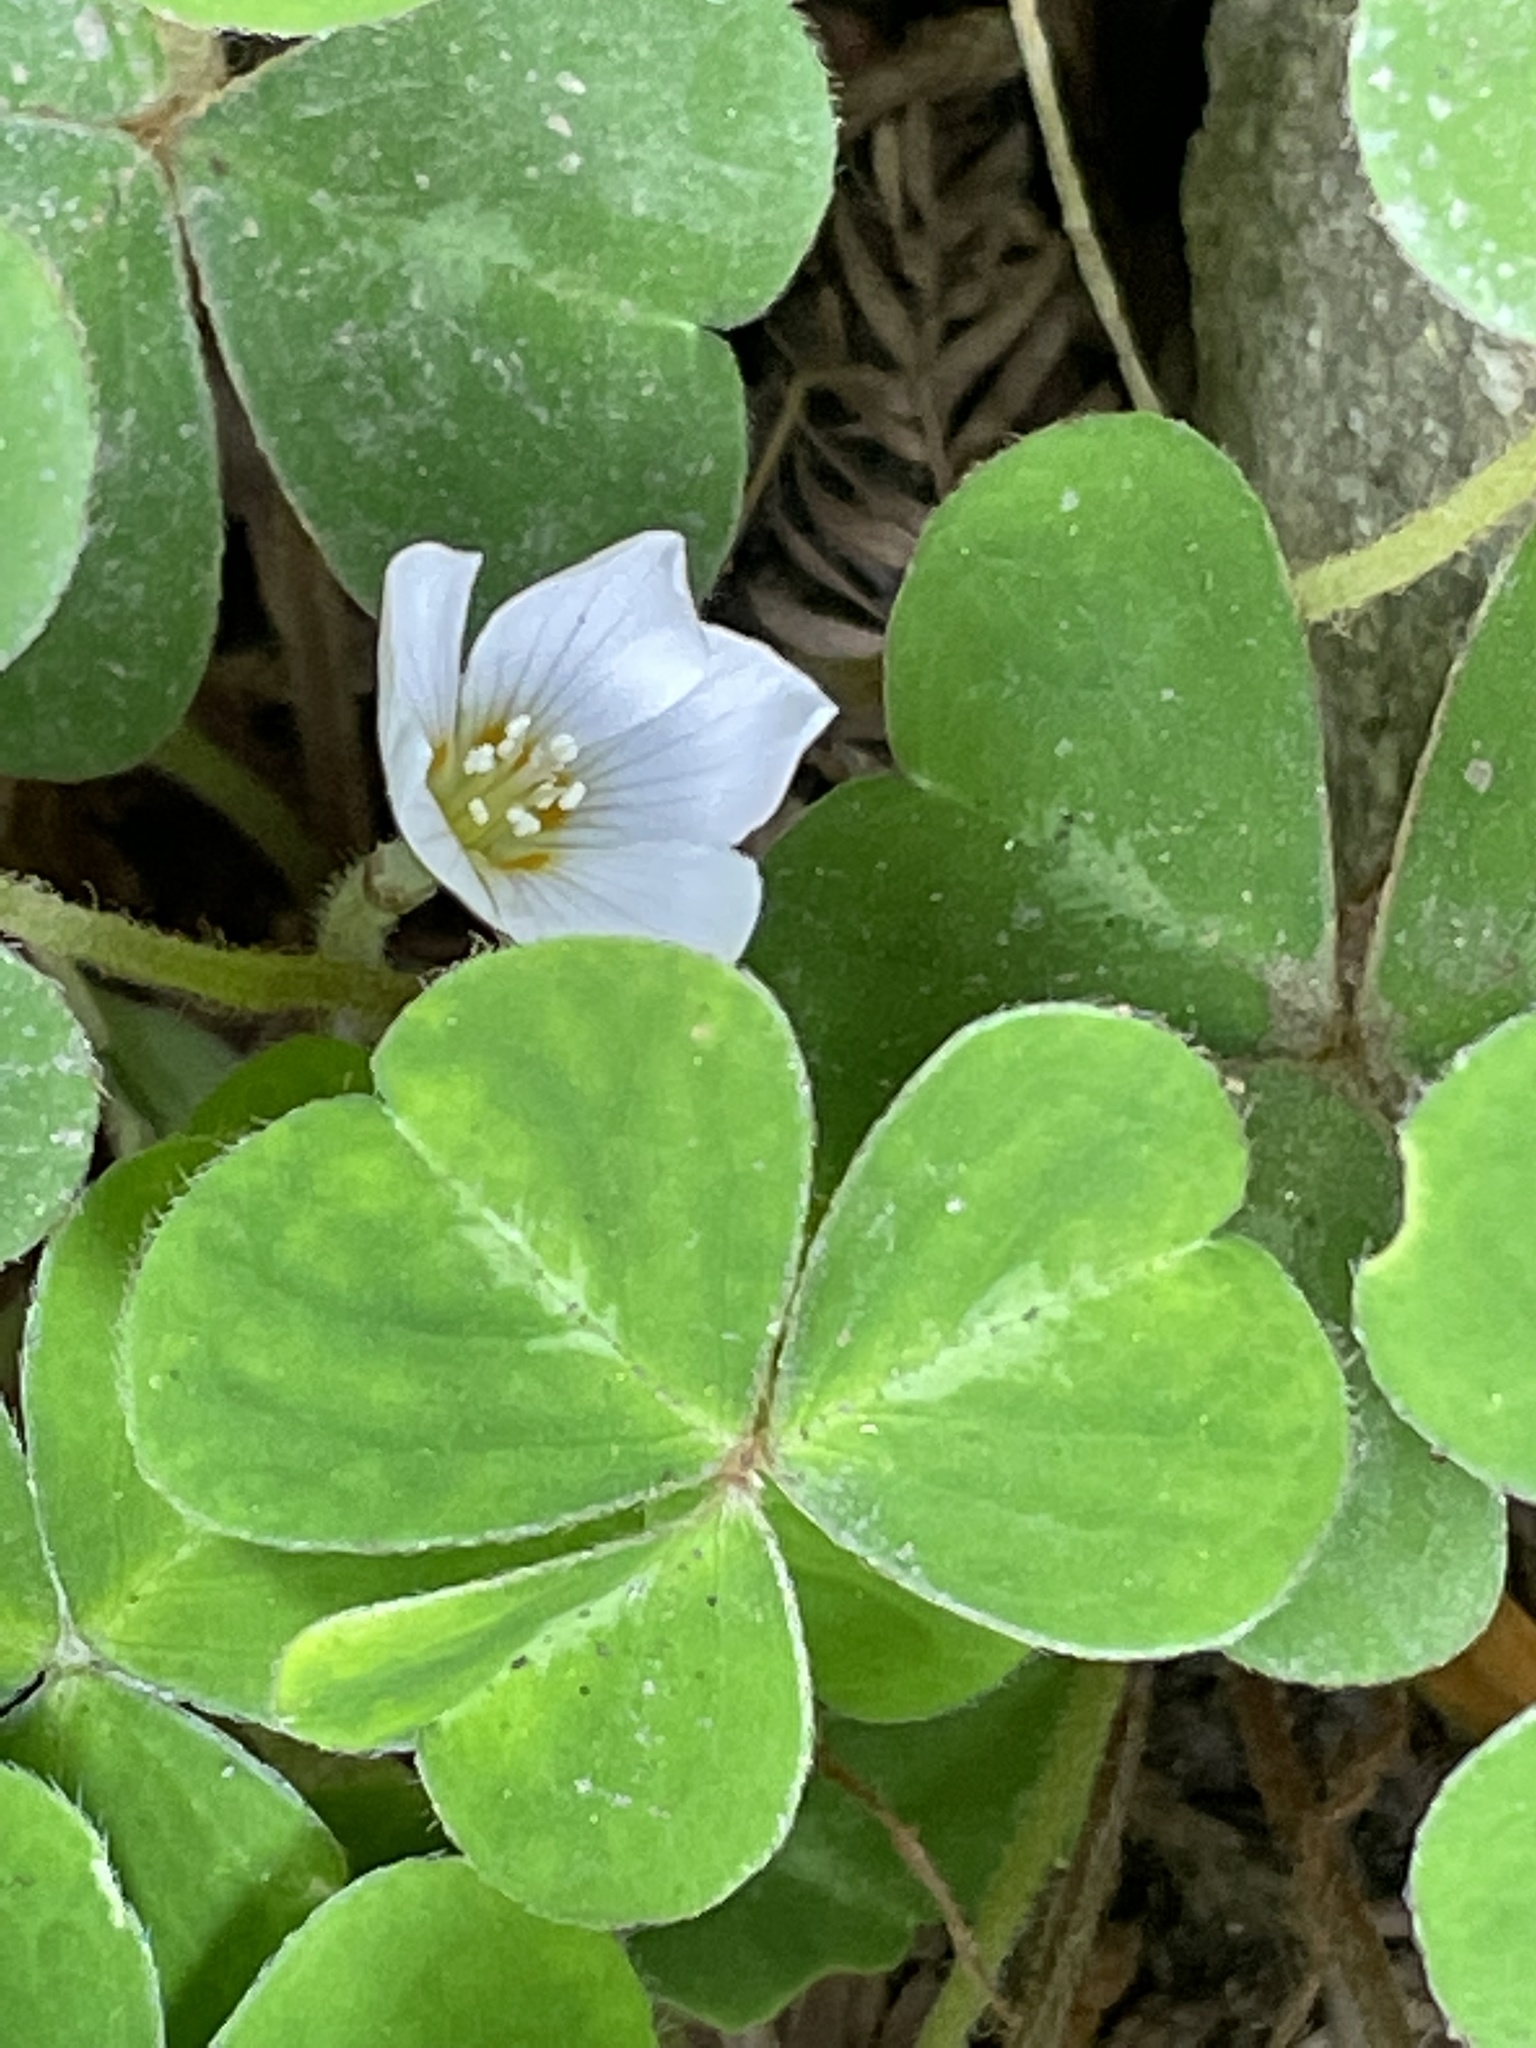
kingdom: Plantae
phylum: Tracheophyta
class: Magnoliopsida
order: Oxalidales
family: Oxalidaceae
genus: Oxalis
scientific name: Oxalis oregana
